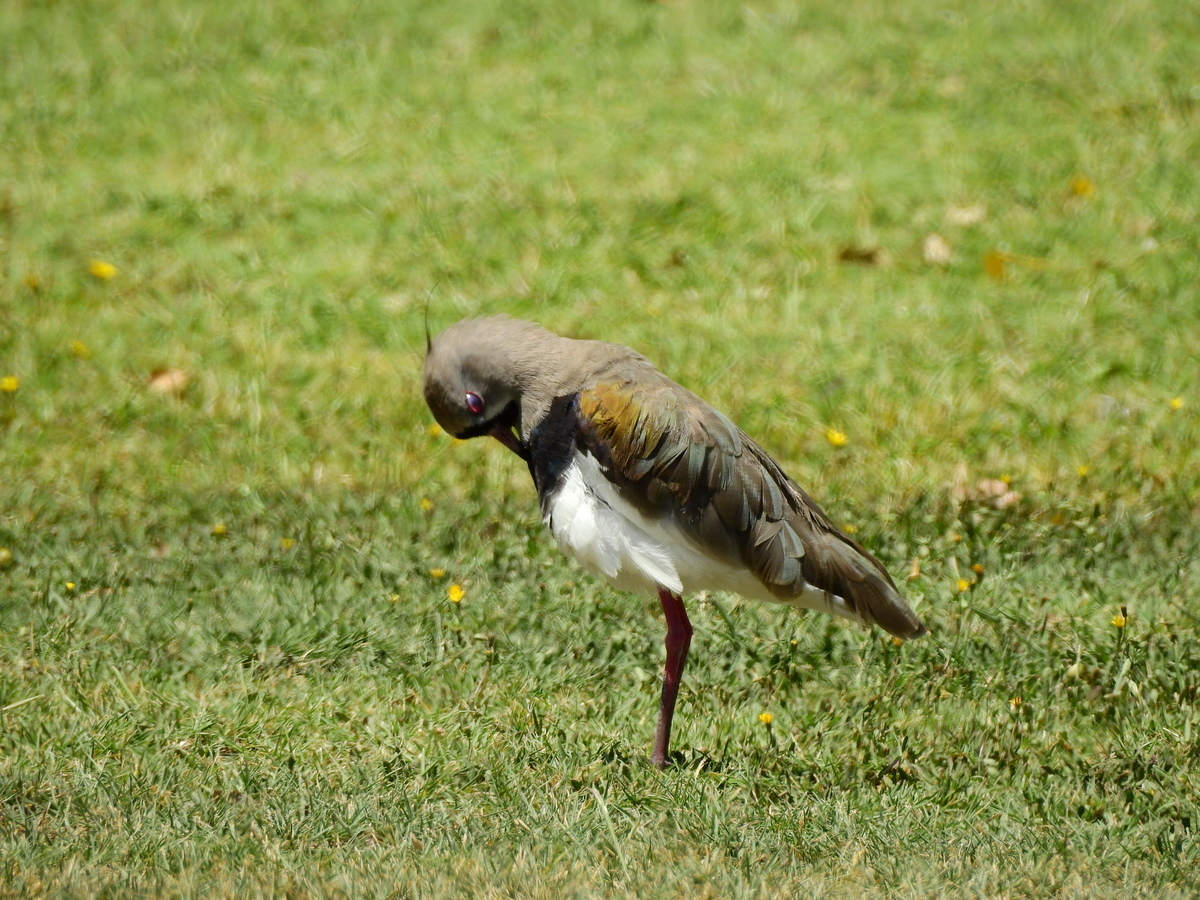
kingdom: Animalia
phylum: Chordata
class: Aves
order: Charadriiformes
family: Charadriidae
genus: Vanellus
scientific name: Vanellus chilensis
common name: Southern lapwing
